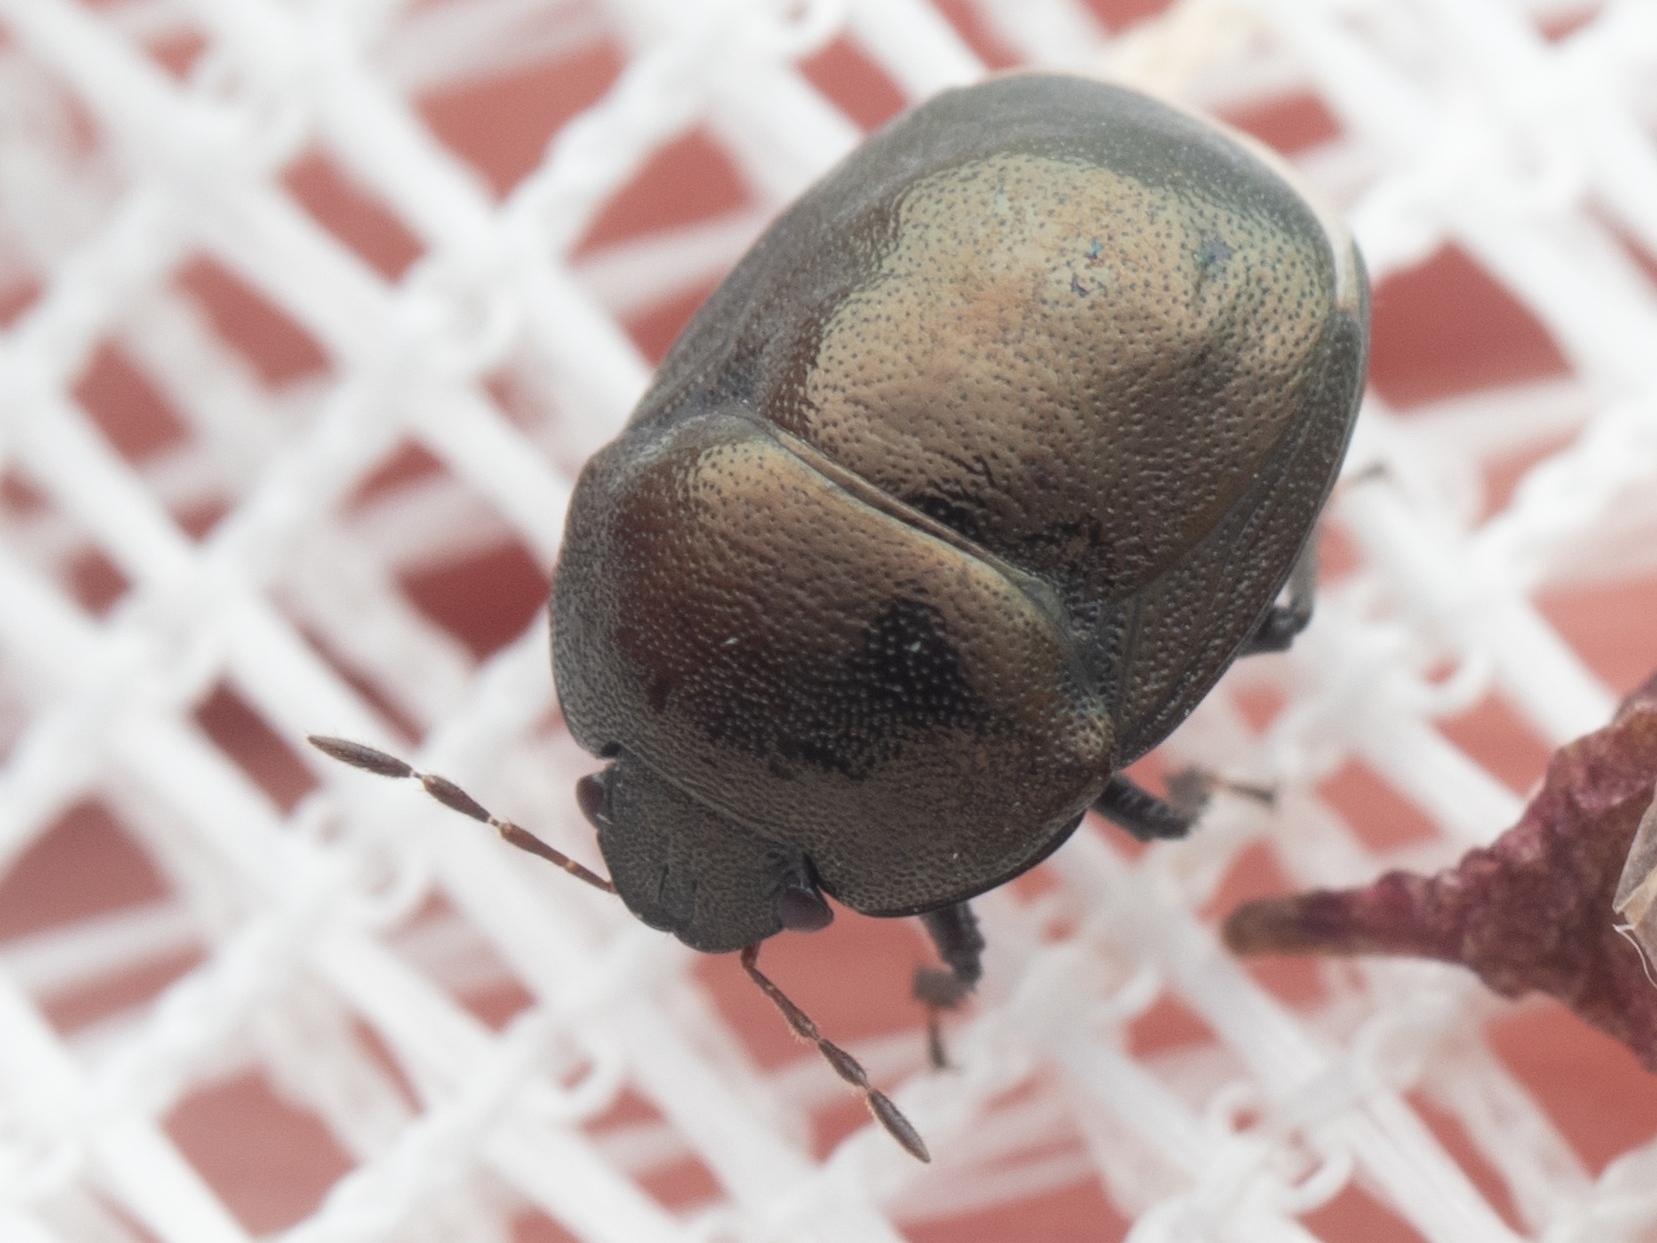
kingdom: Animalia
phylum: Arthropoda
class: Insecta
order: Hemiptera
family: Thyreocoridae
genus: Thyreocoris
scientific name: Thyreocoris scarabaeoides
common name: Negro bug
